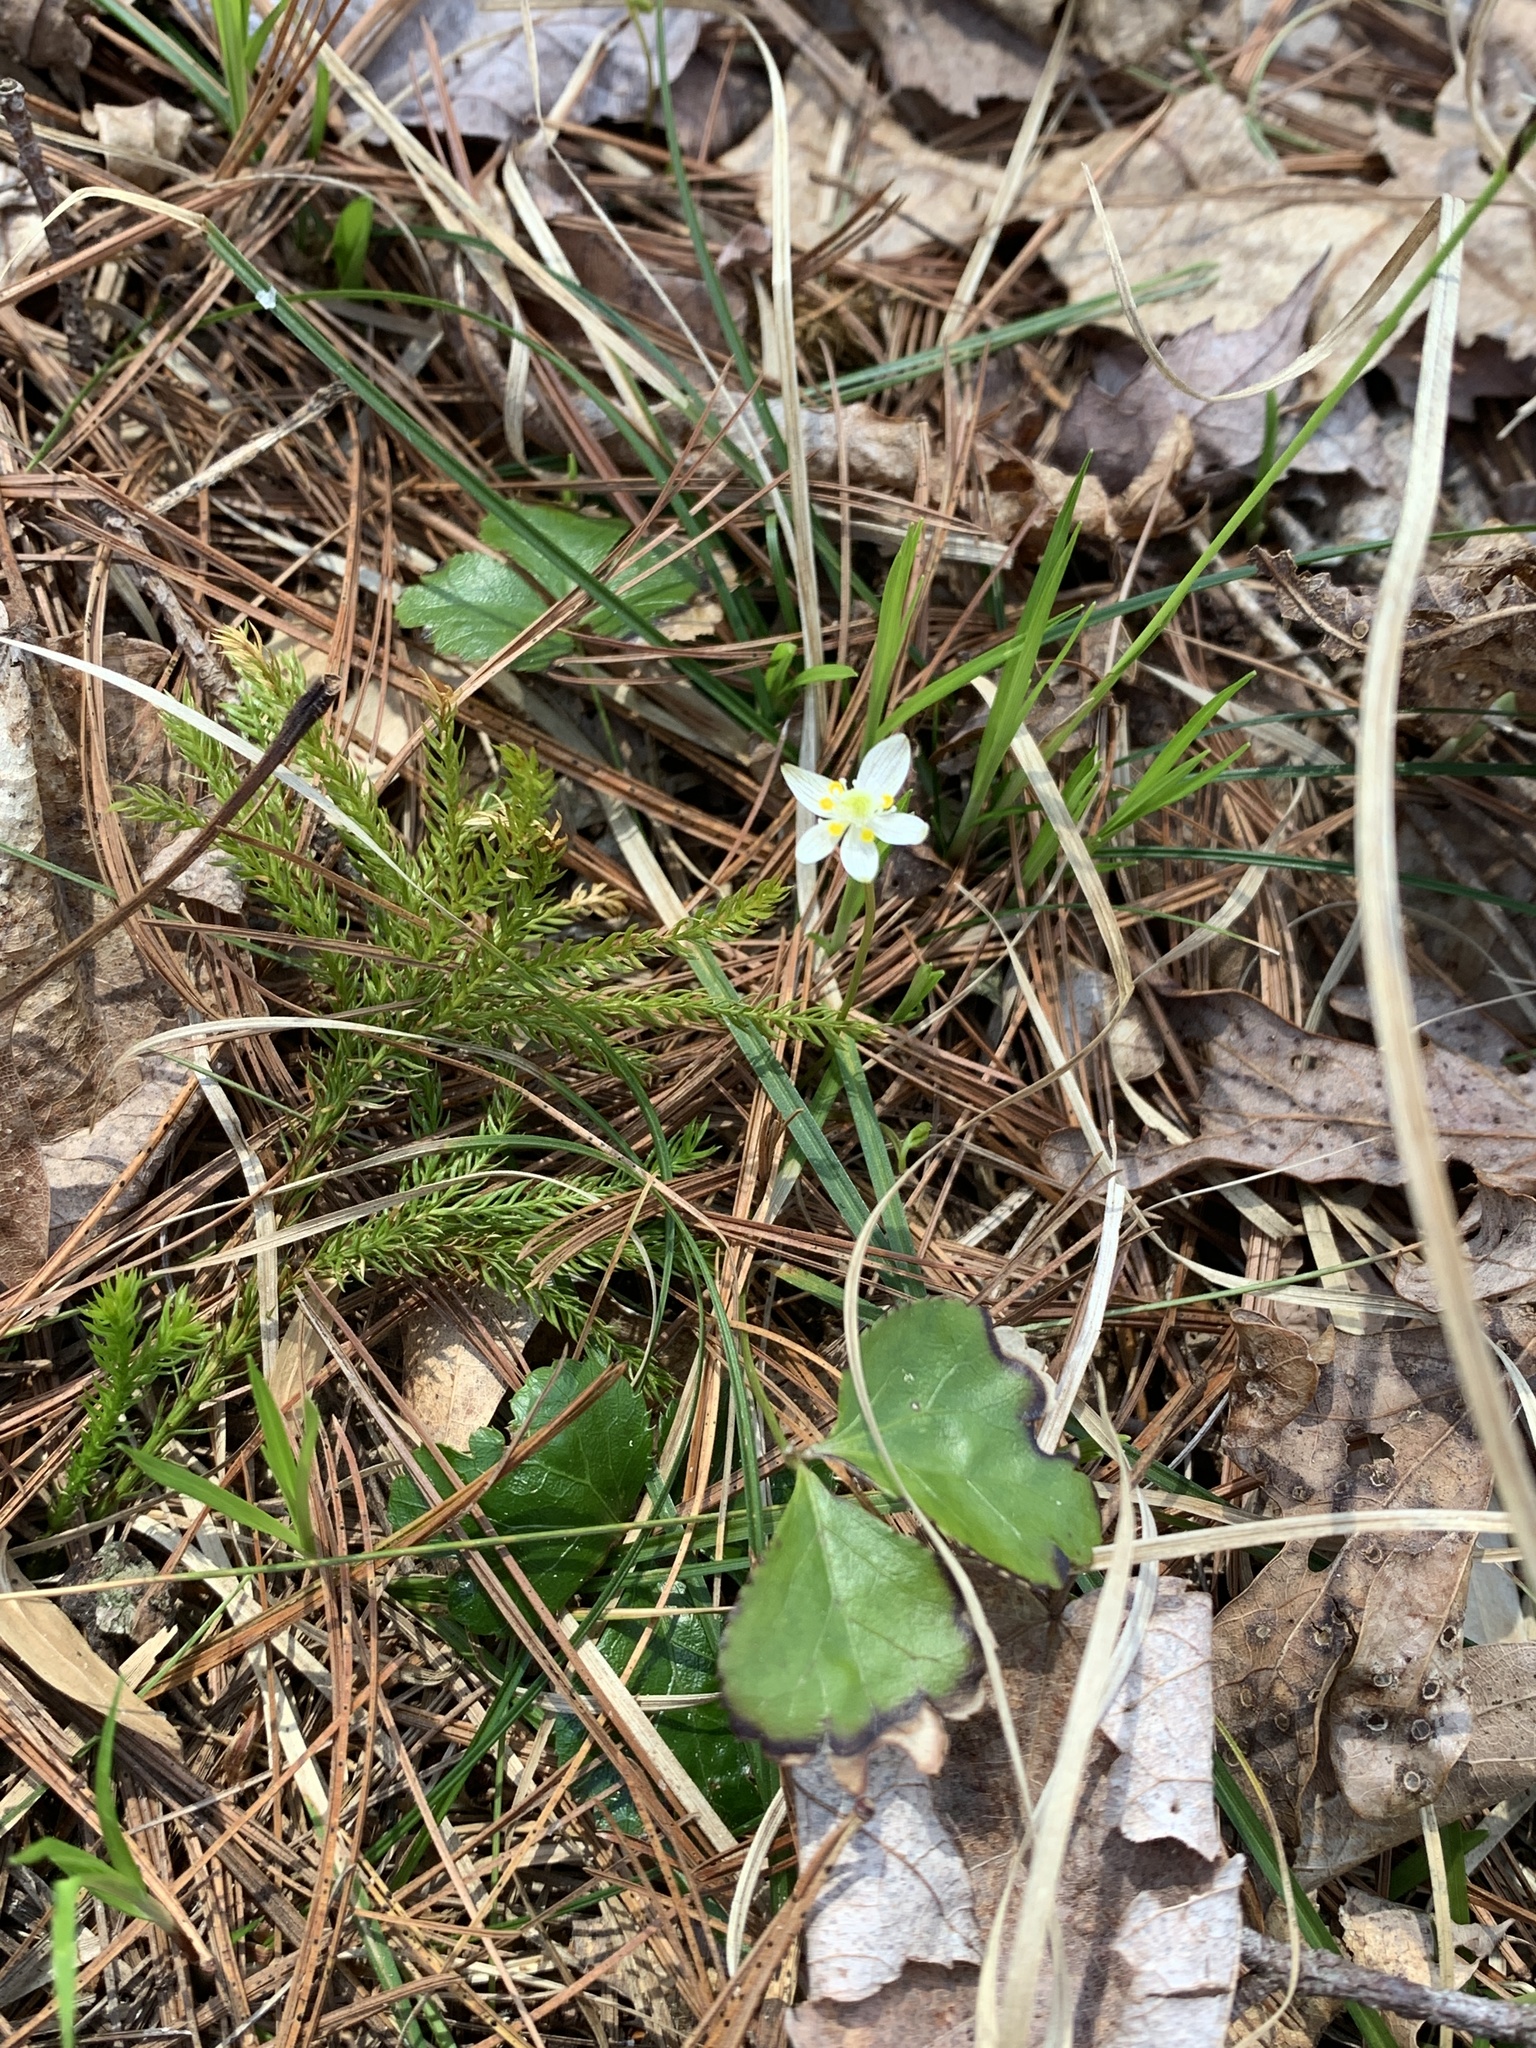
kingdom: Plantae
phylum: Tracheophyta
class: Magnoliopsida
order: Ranunculales
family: Ranunculaceae
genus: Coptis
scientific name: Coptis trifolia
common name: Canker-root
